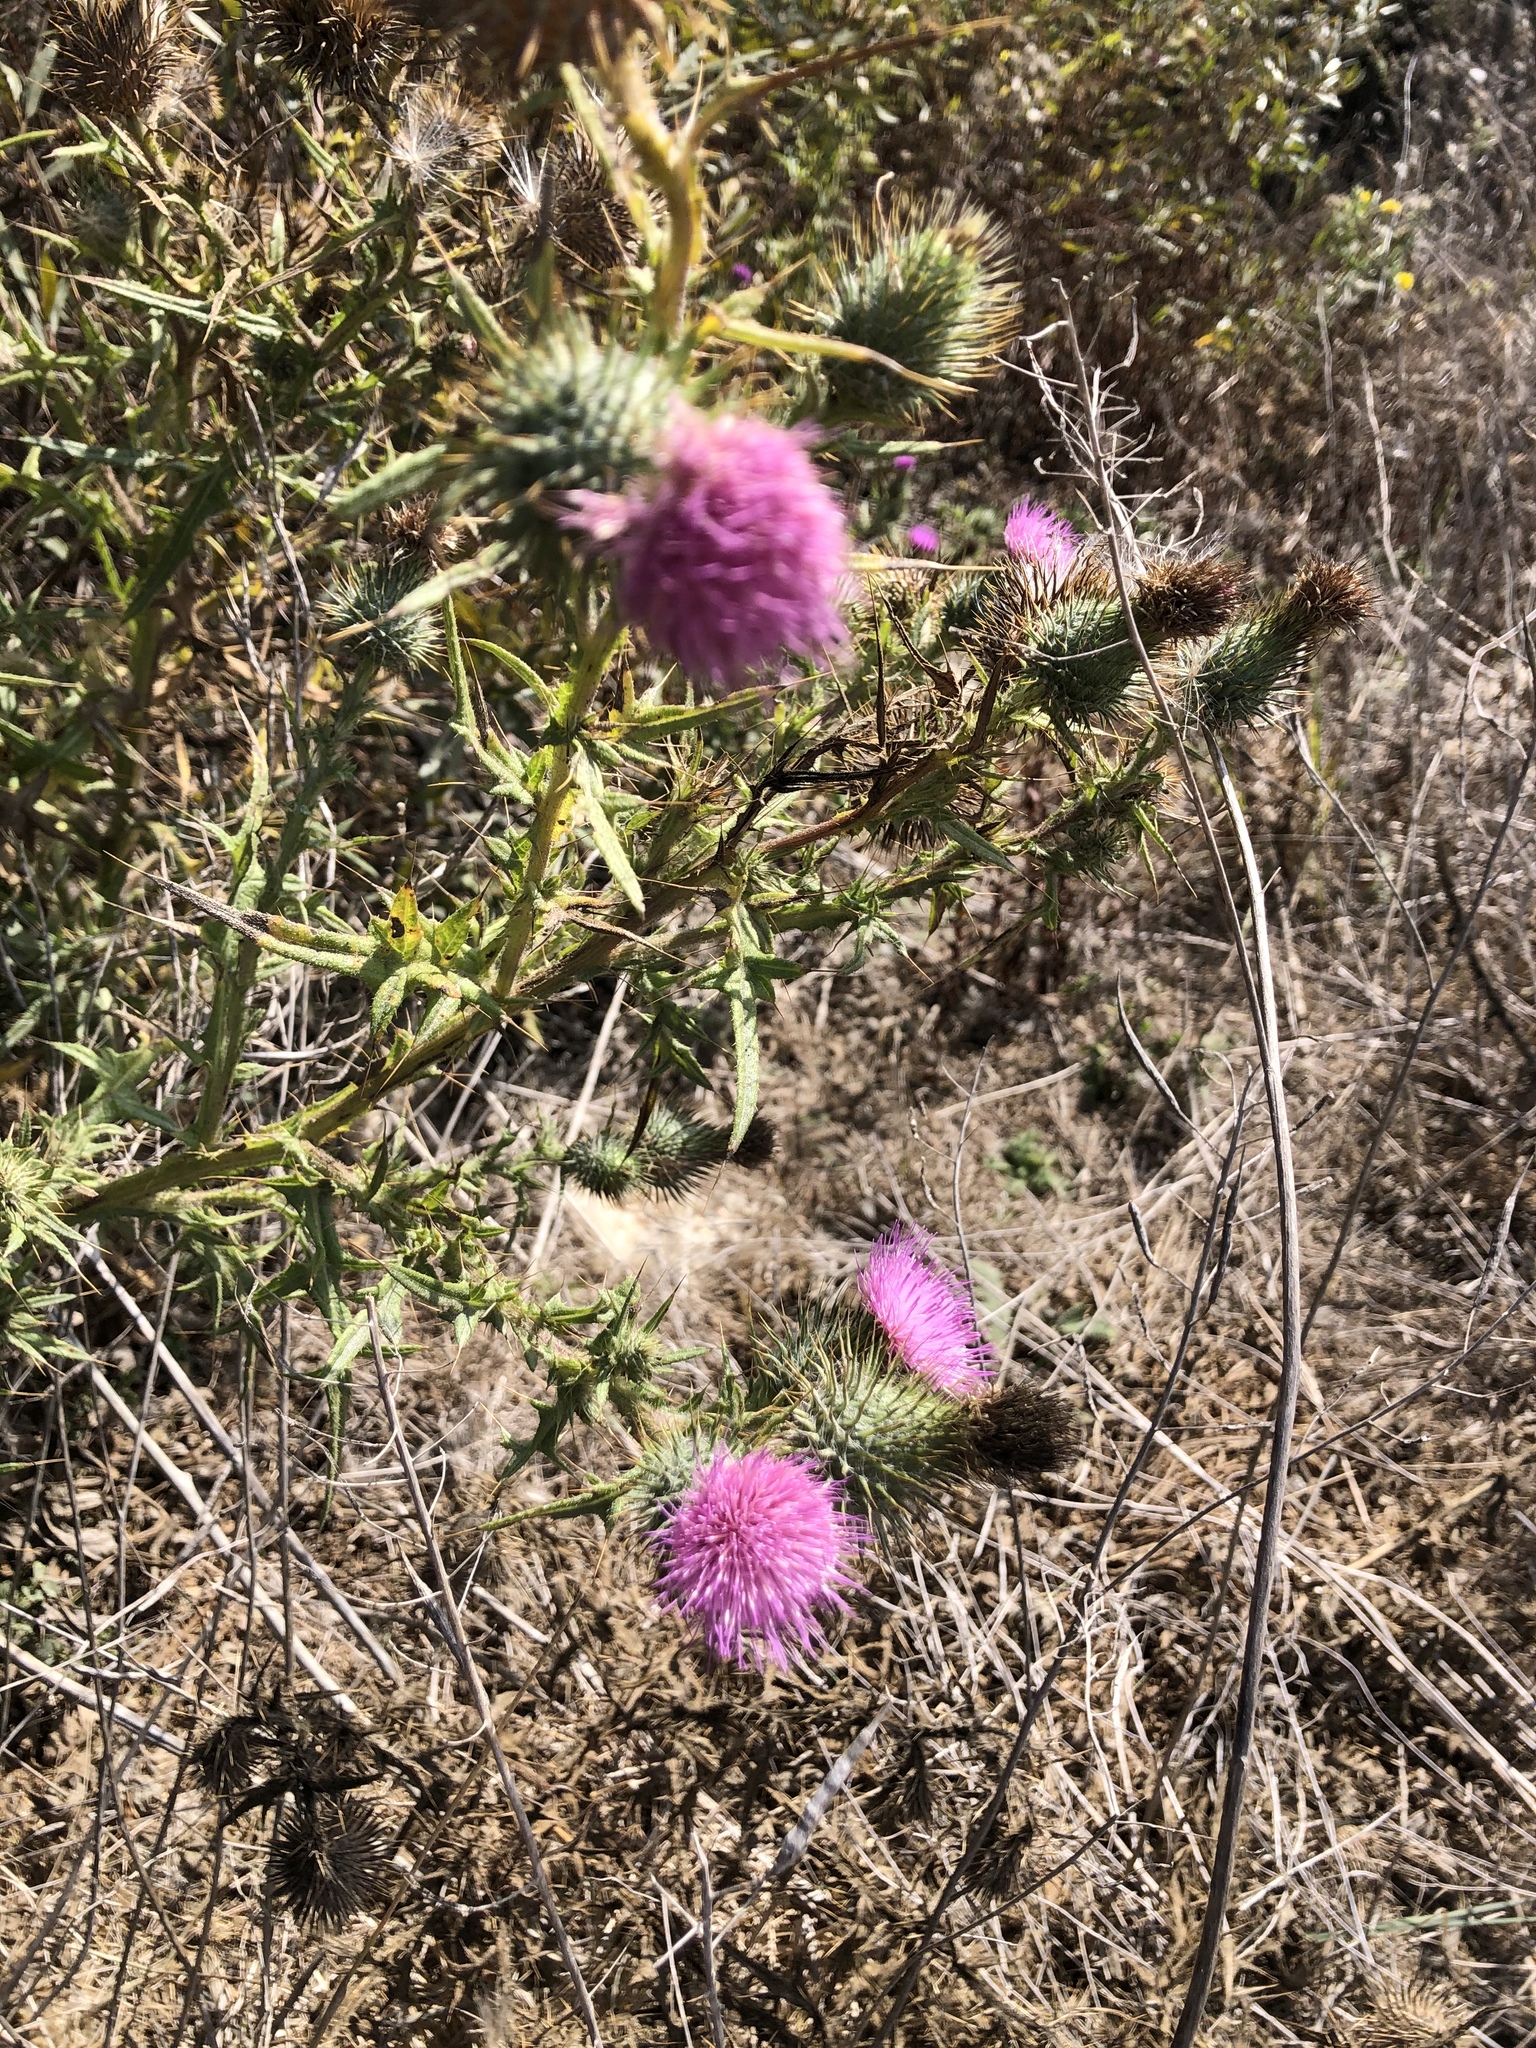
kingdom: Plantae
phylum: Tracheophyta
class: Magnoliopsida
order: Asterales
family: Asteraceae
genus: Cirsium
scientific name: Cirsium vulgare
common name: Bull thistle
